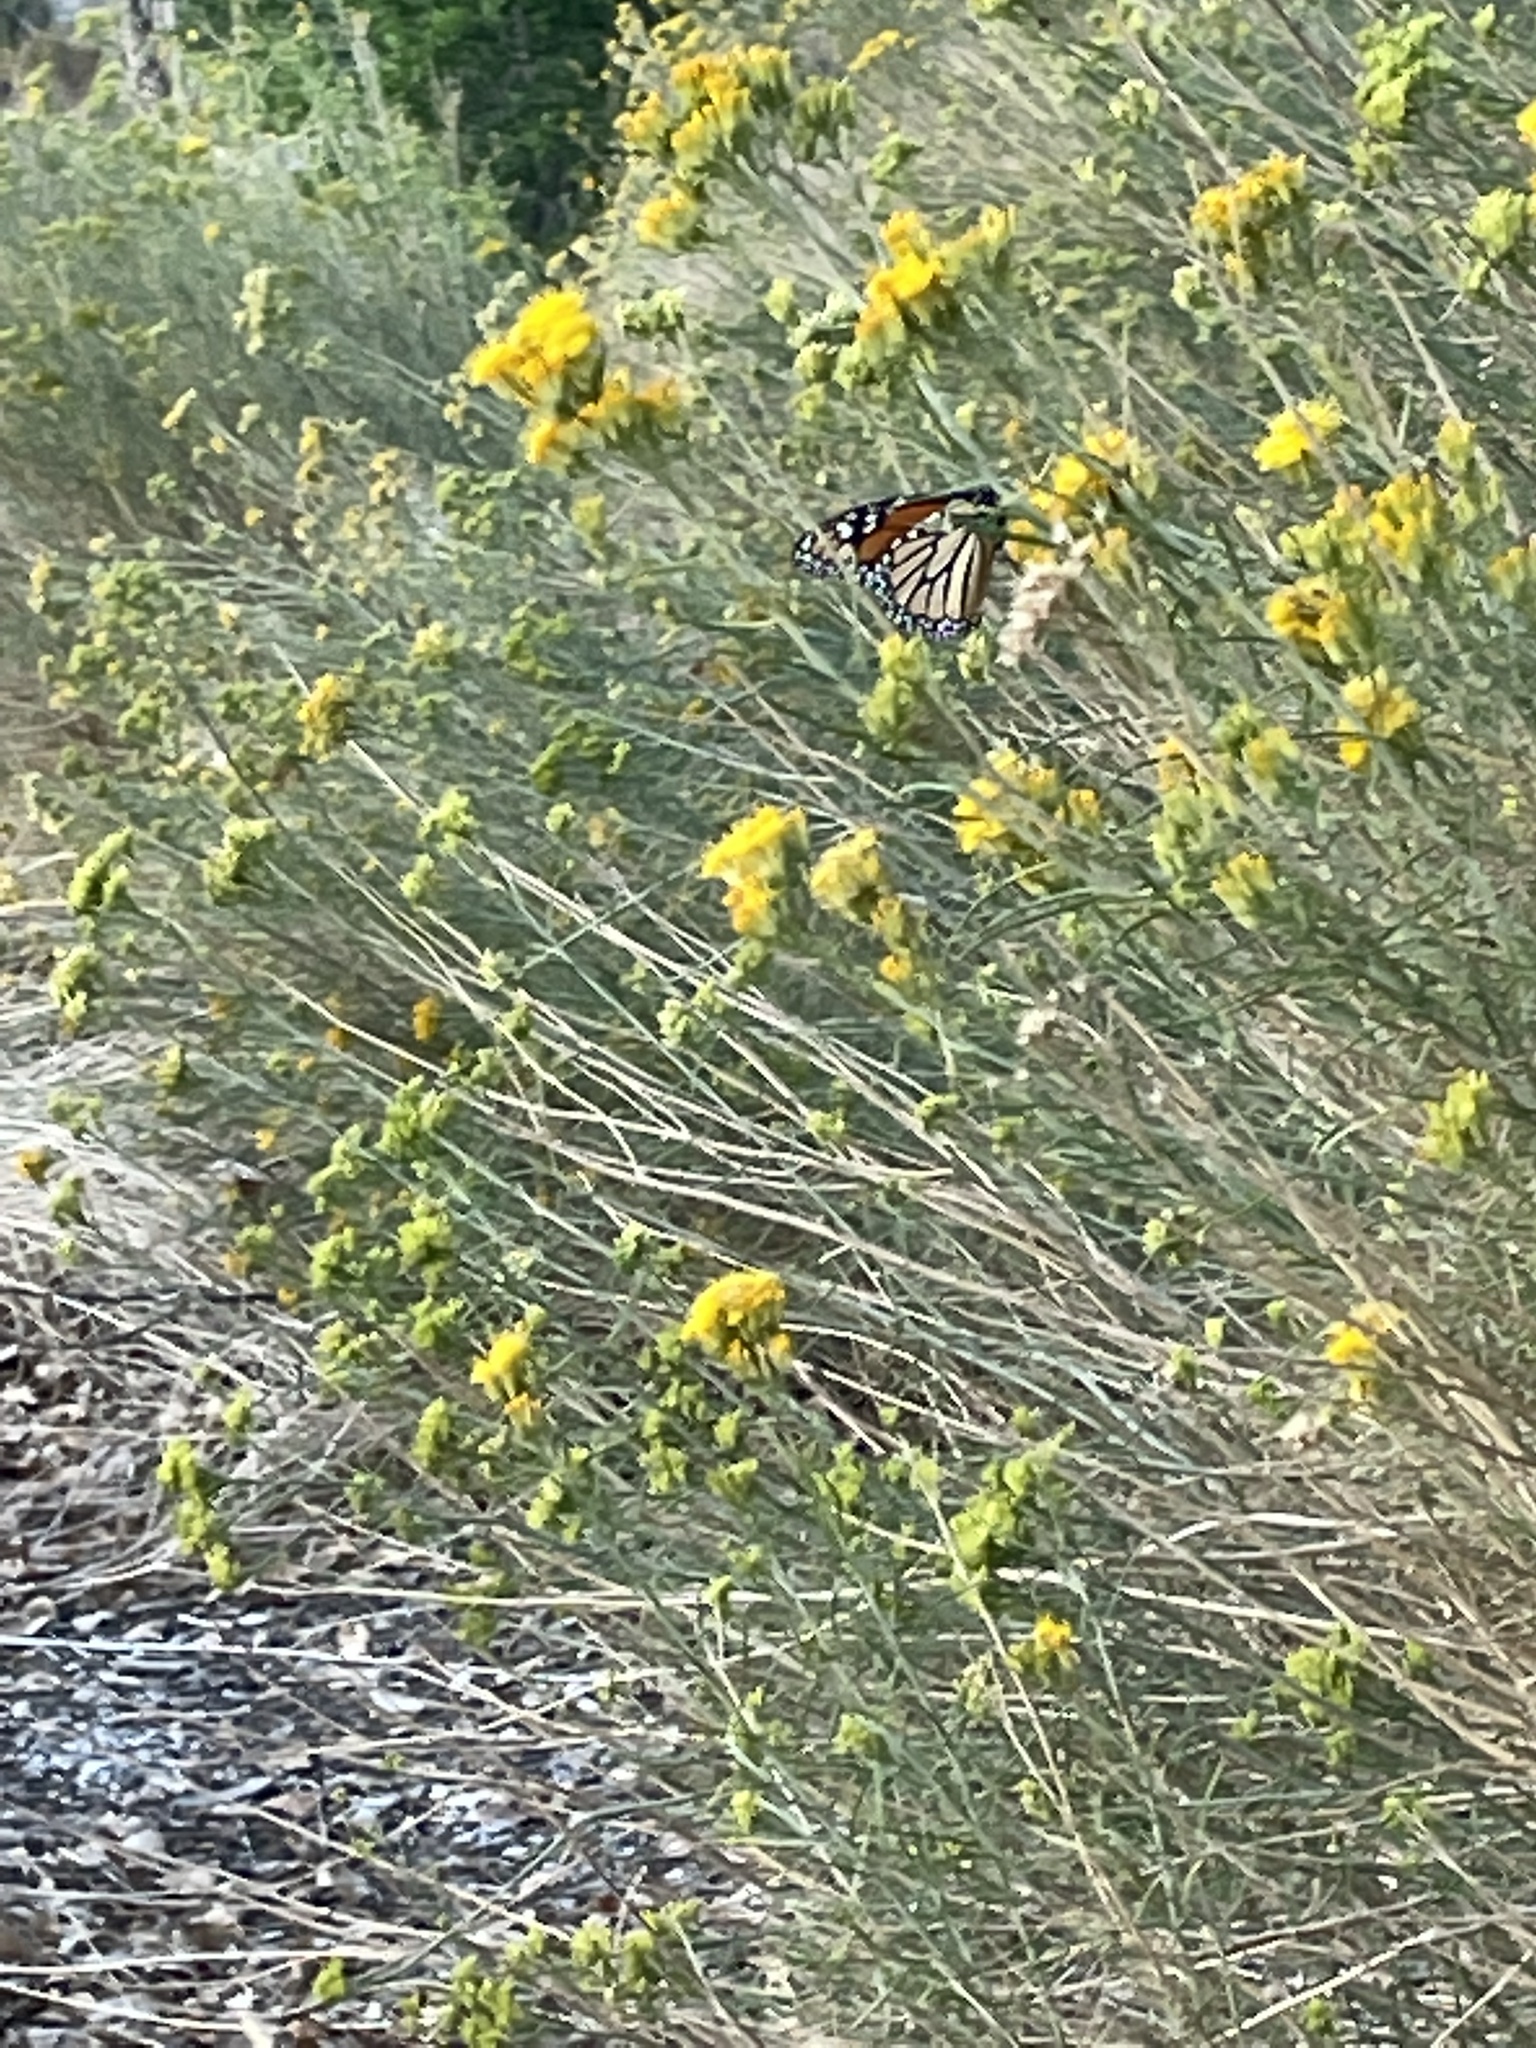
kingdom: Animalia
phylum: Arthropoda
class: Insecta
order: Lepidoptera
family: Nymphalidae
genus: Danaus
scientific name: Danaus plexippus
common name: Monarch
